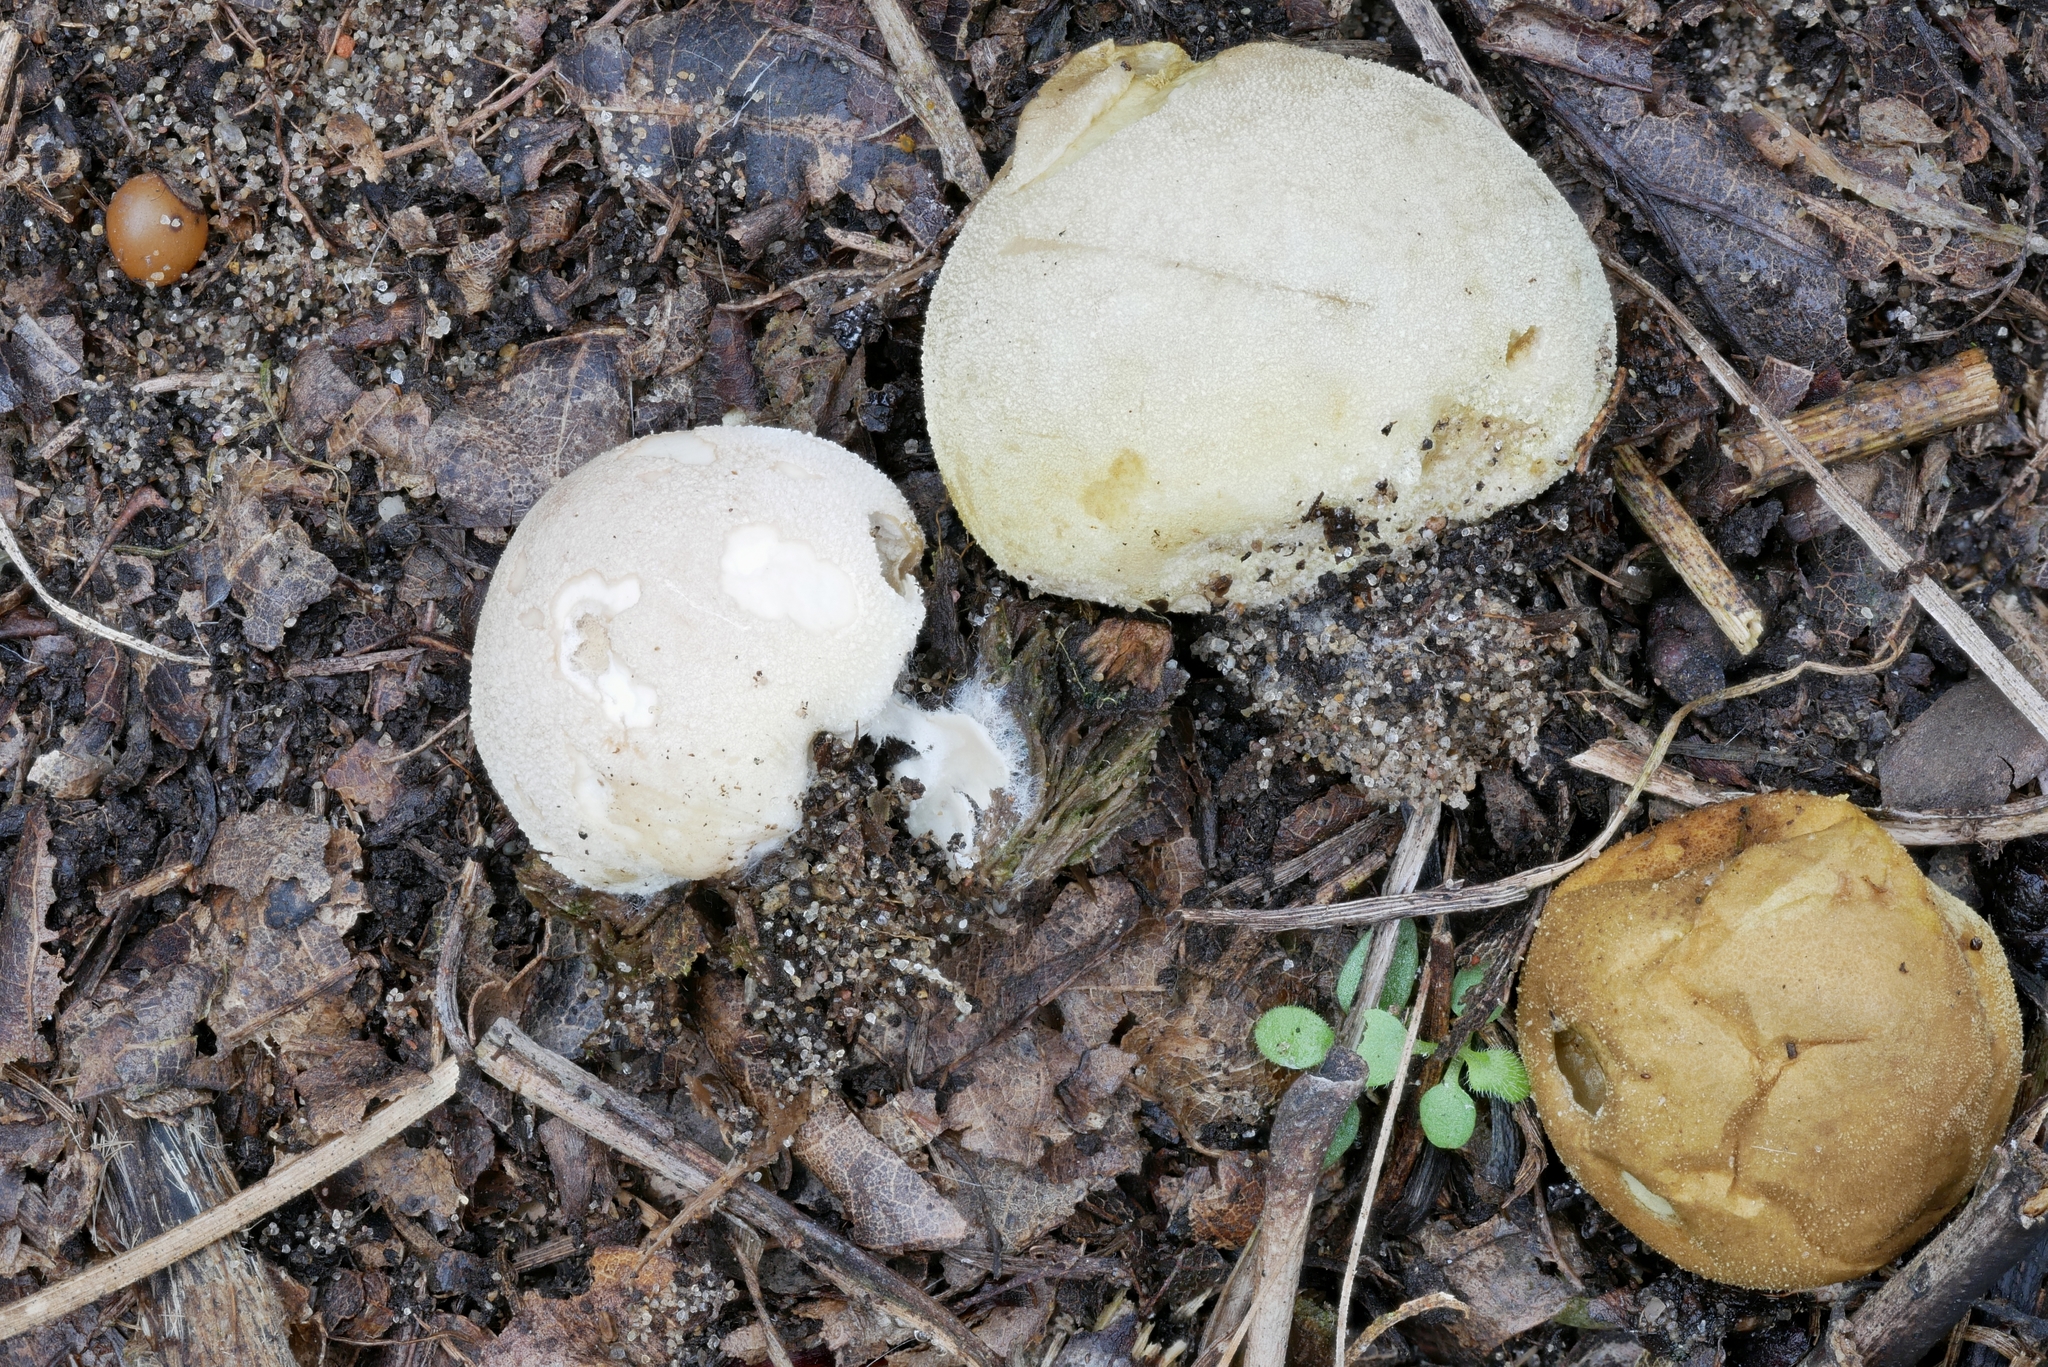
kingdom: Fungi
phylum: Basidiomycota
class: Agaricomycetes
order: Agaricales
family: Lycoperdaceae
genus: Bovista
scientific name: Bovista aestivalis
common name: Deceiving bovist
